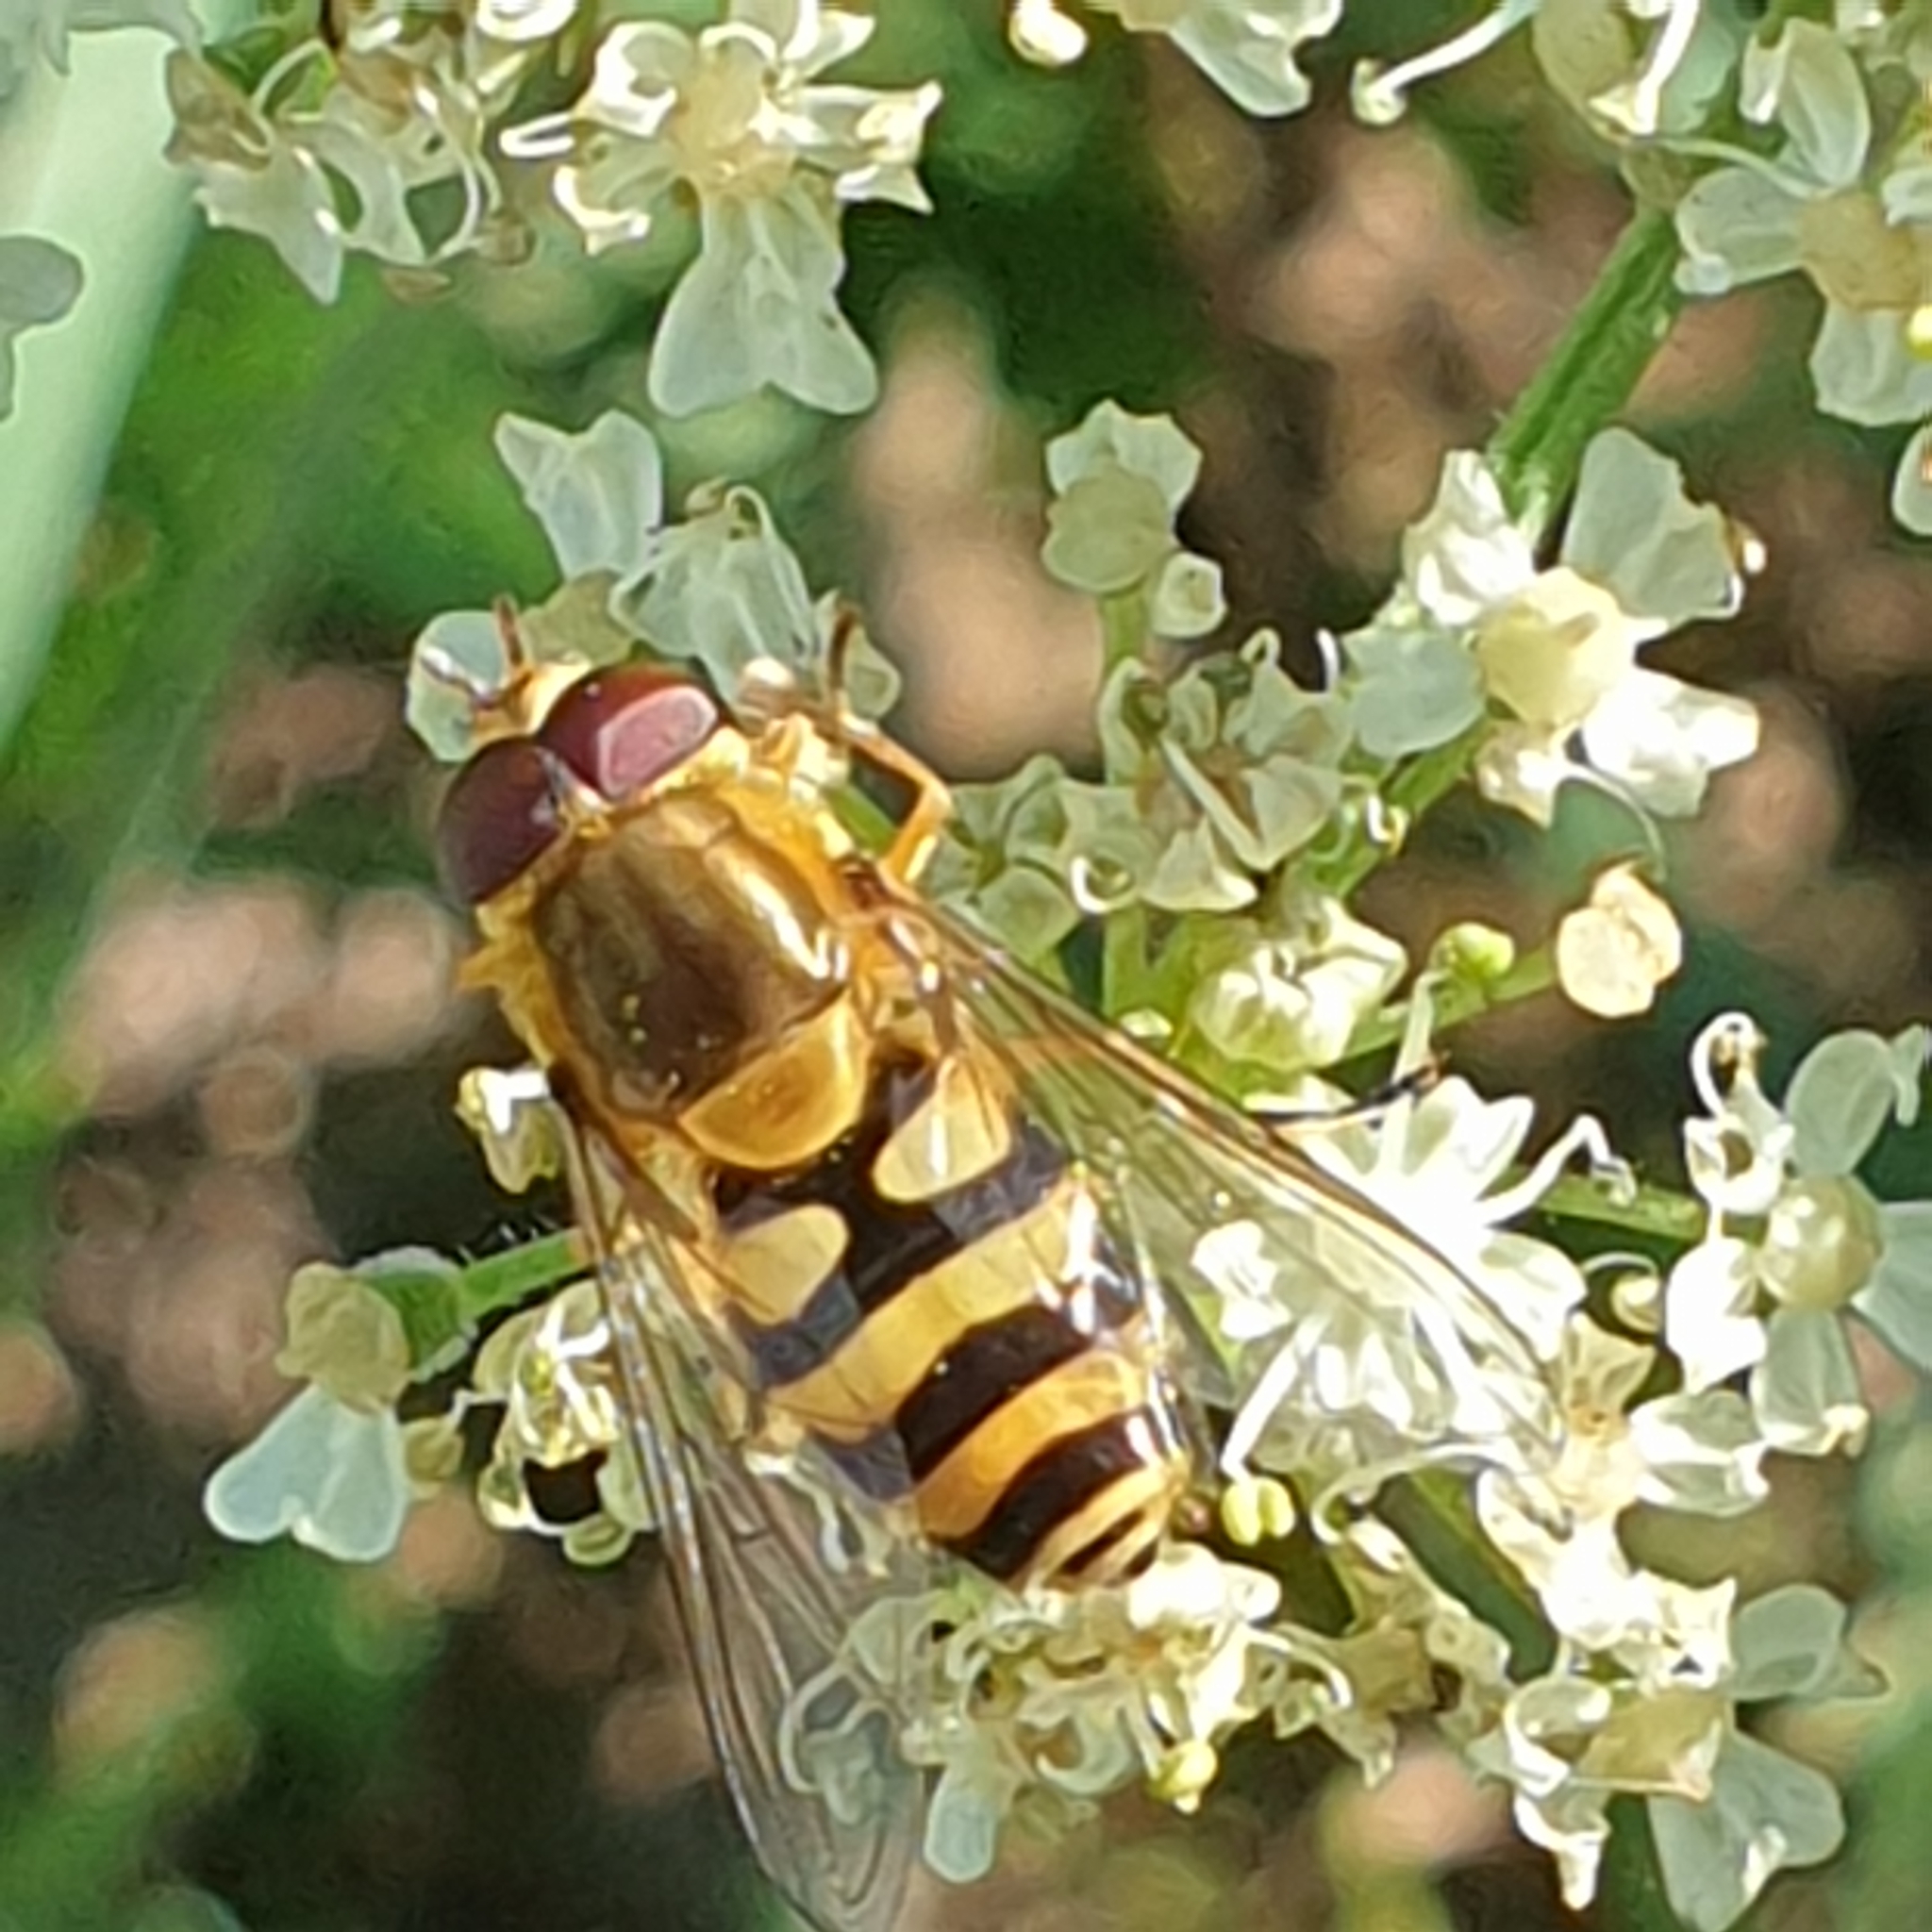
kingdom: Animalia
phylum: Arthropoda
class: Insecta
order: Diptera
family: Syrphidae
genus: Syrphus
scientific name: Syrphus
